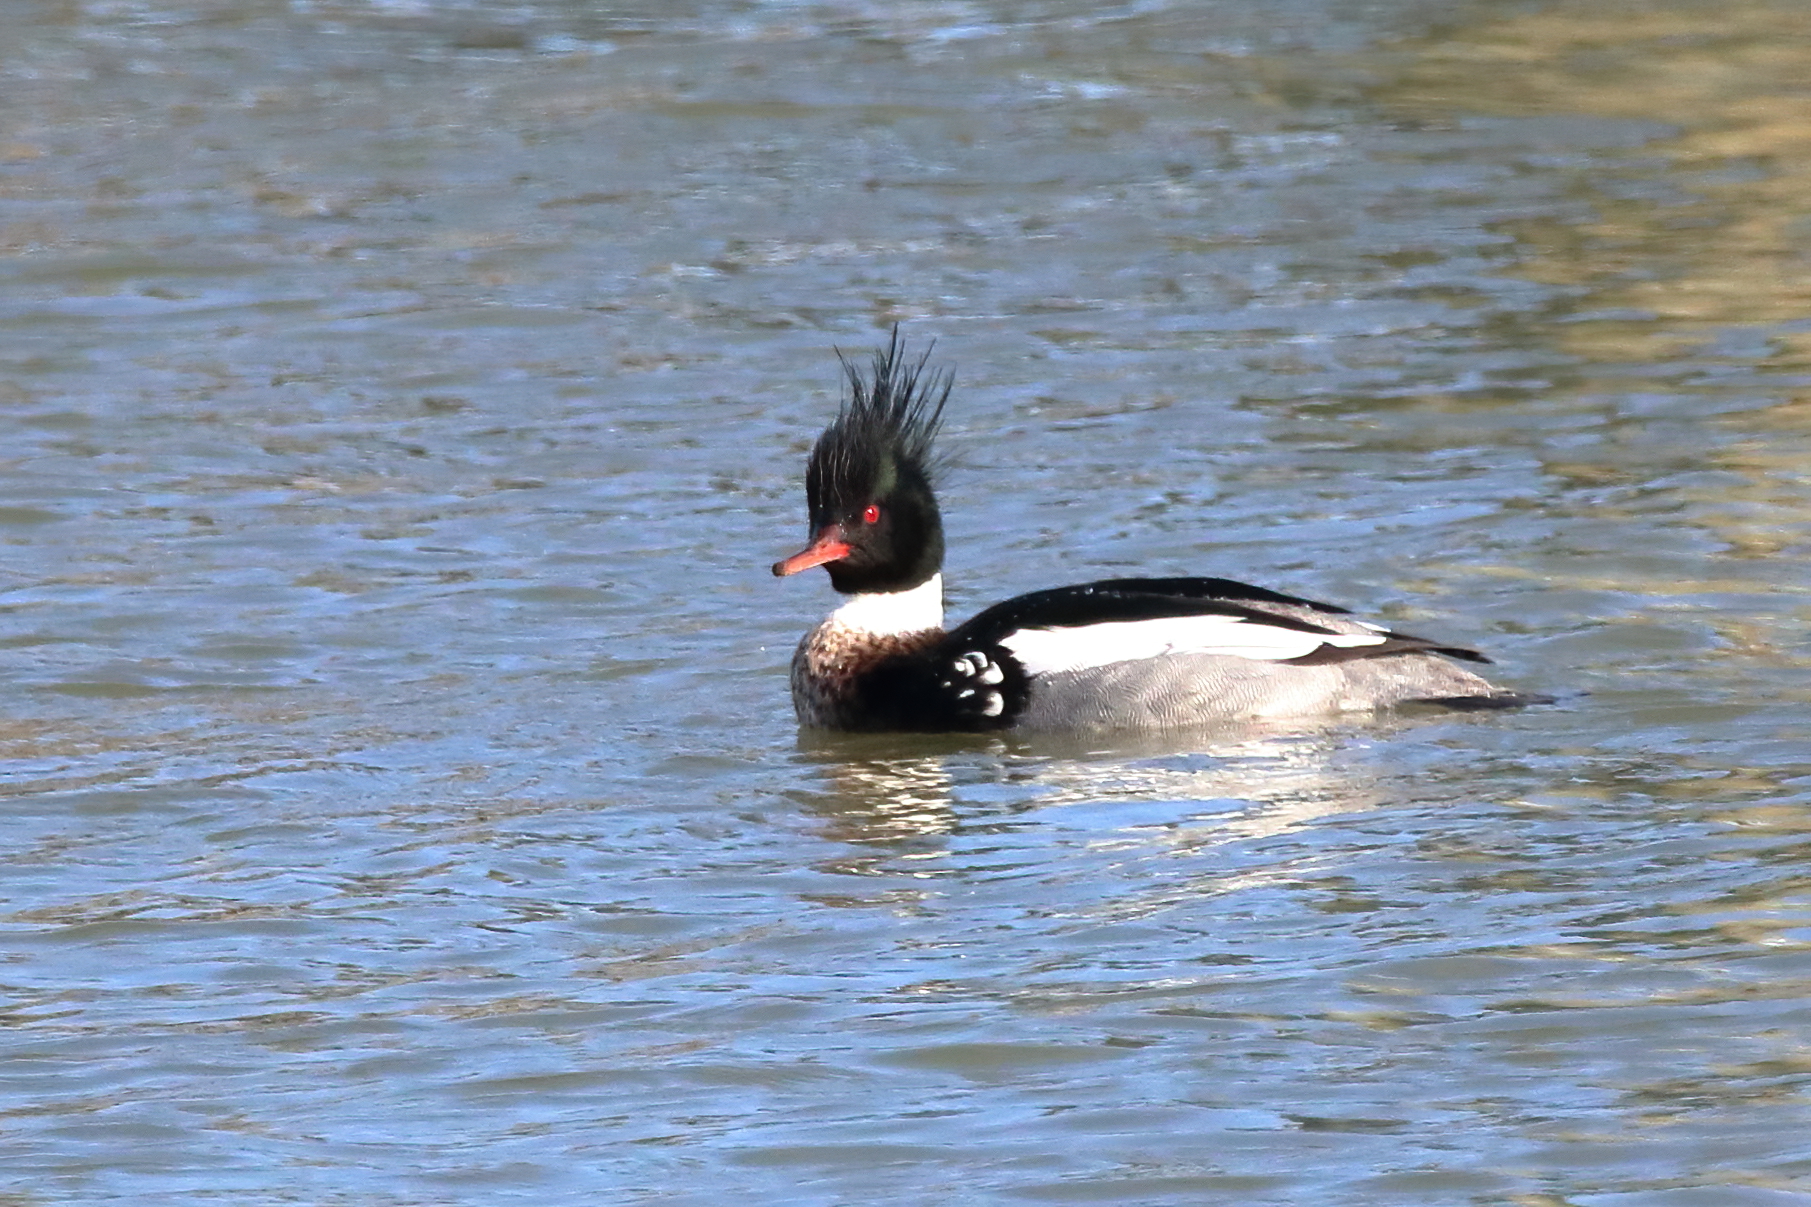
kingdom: Animalia
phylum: Chordata
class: Aves
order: Anseriformes
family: Anatidae
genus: Mergus
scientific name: Mergus serrator
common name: Red-breasted merganser
